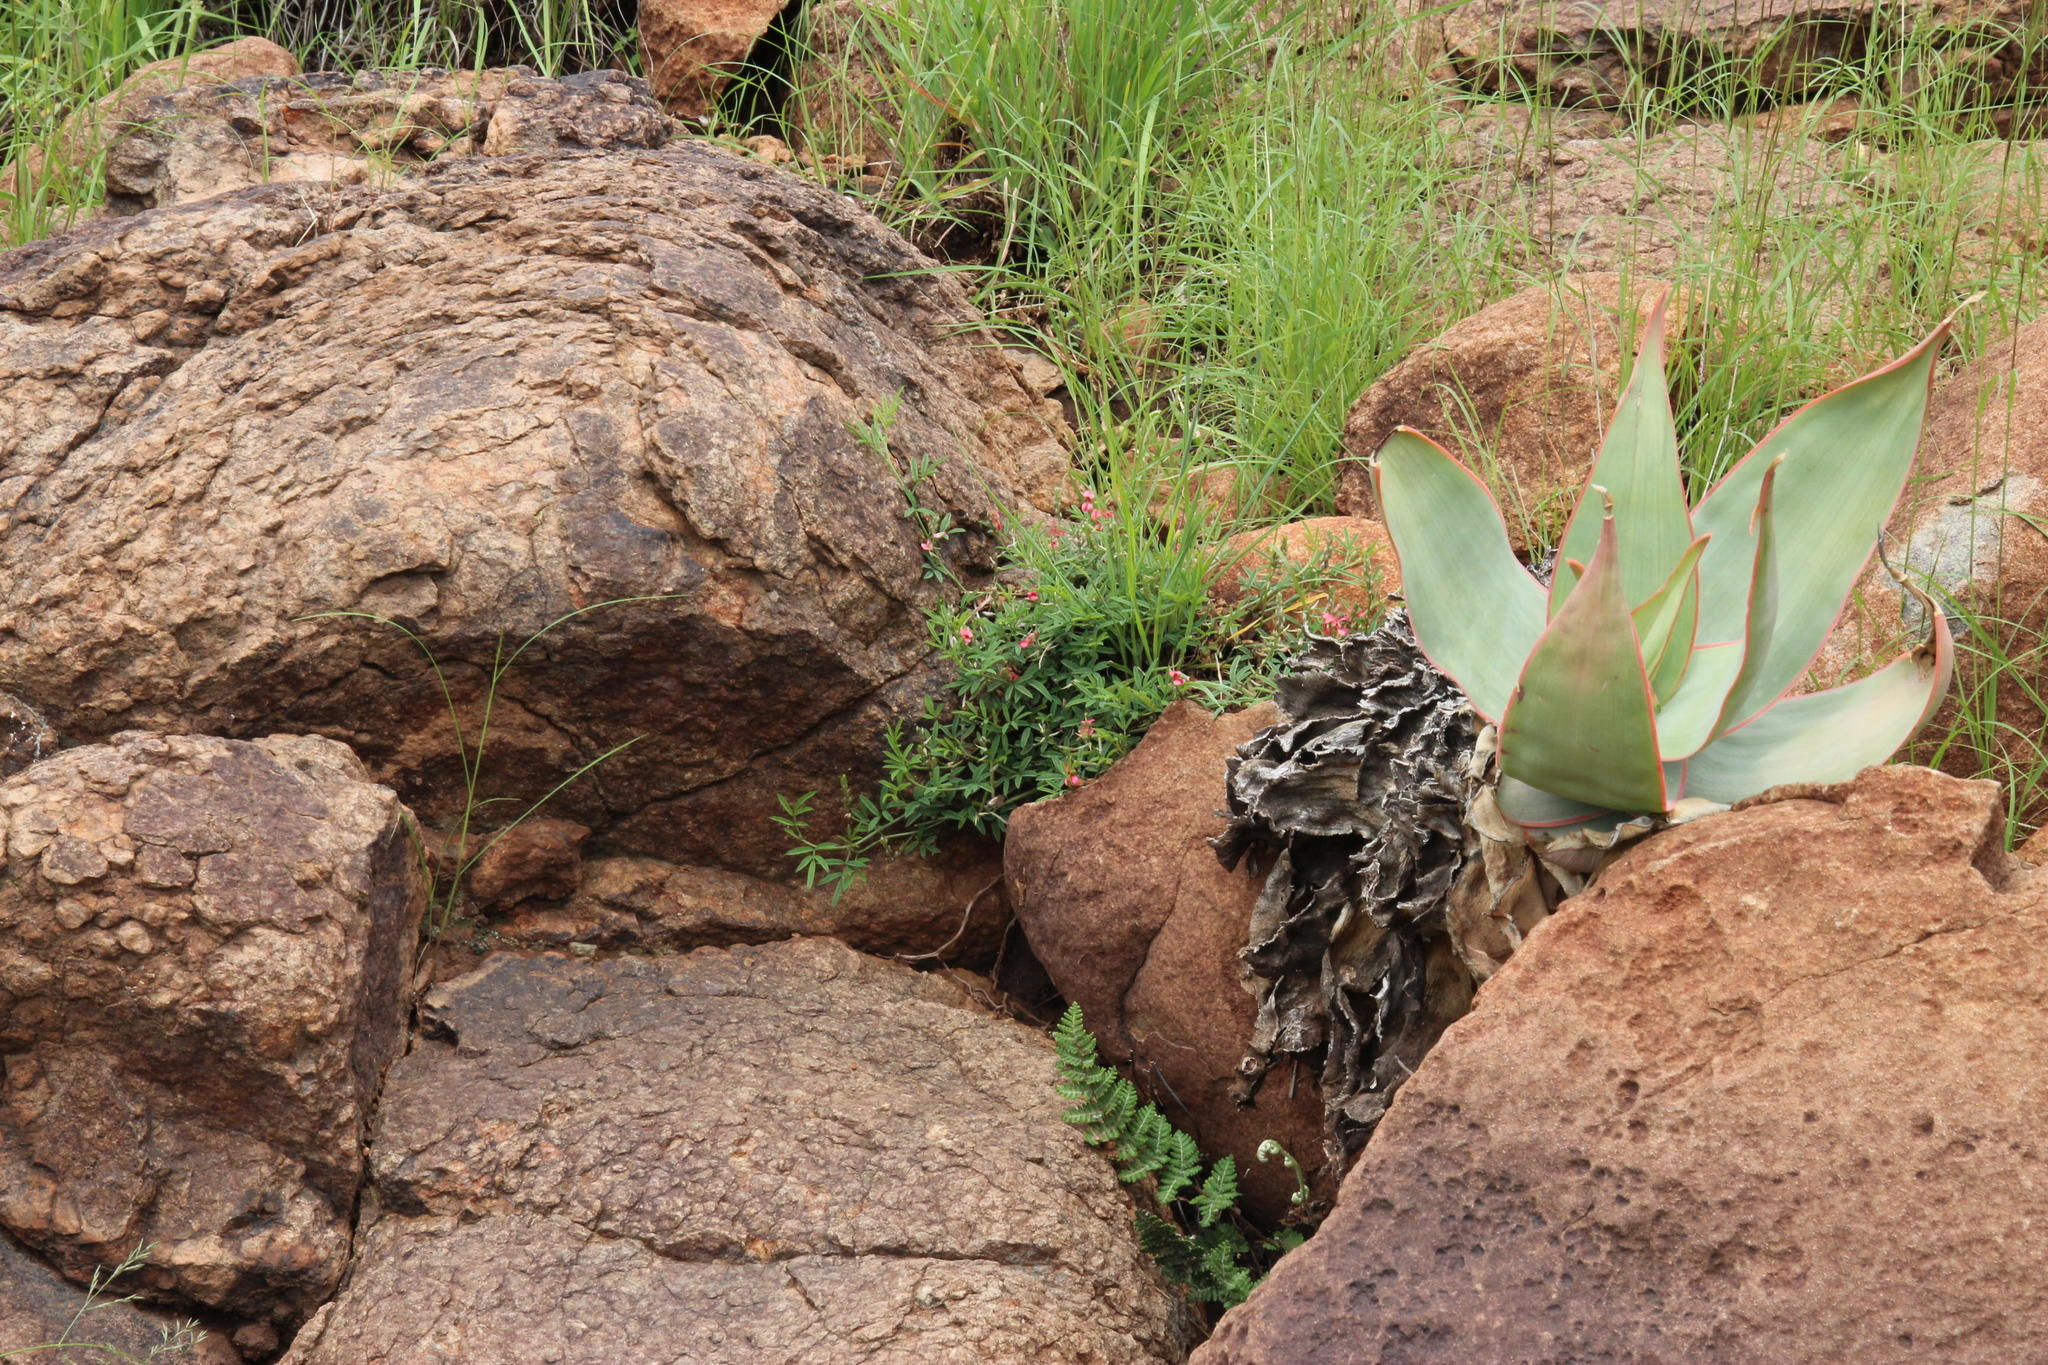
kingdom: Plantae
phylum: Tracheophyta
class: Magnoliopsida
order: Fabales
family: Fabaceae
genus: Indigofera
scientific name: Indigofera disticha
